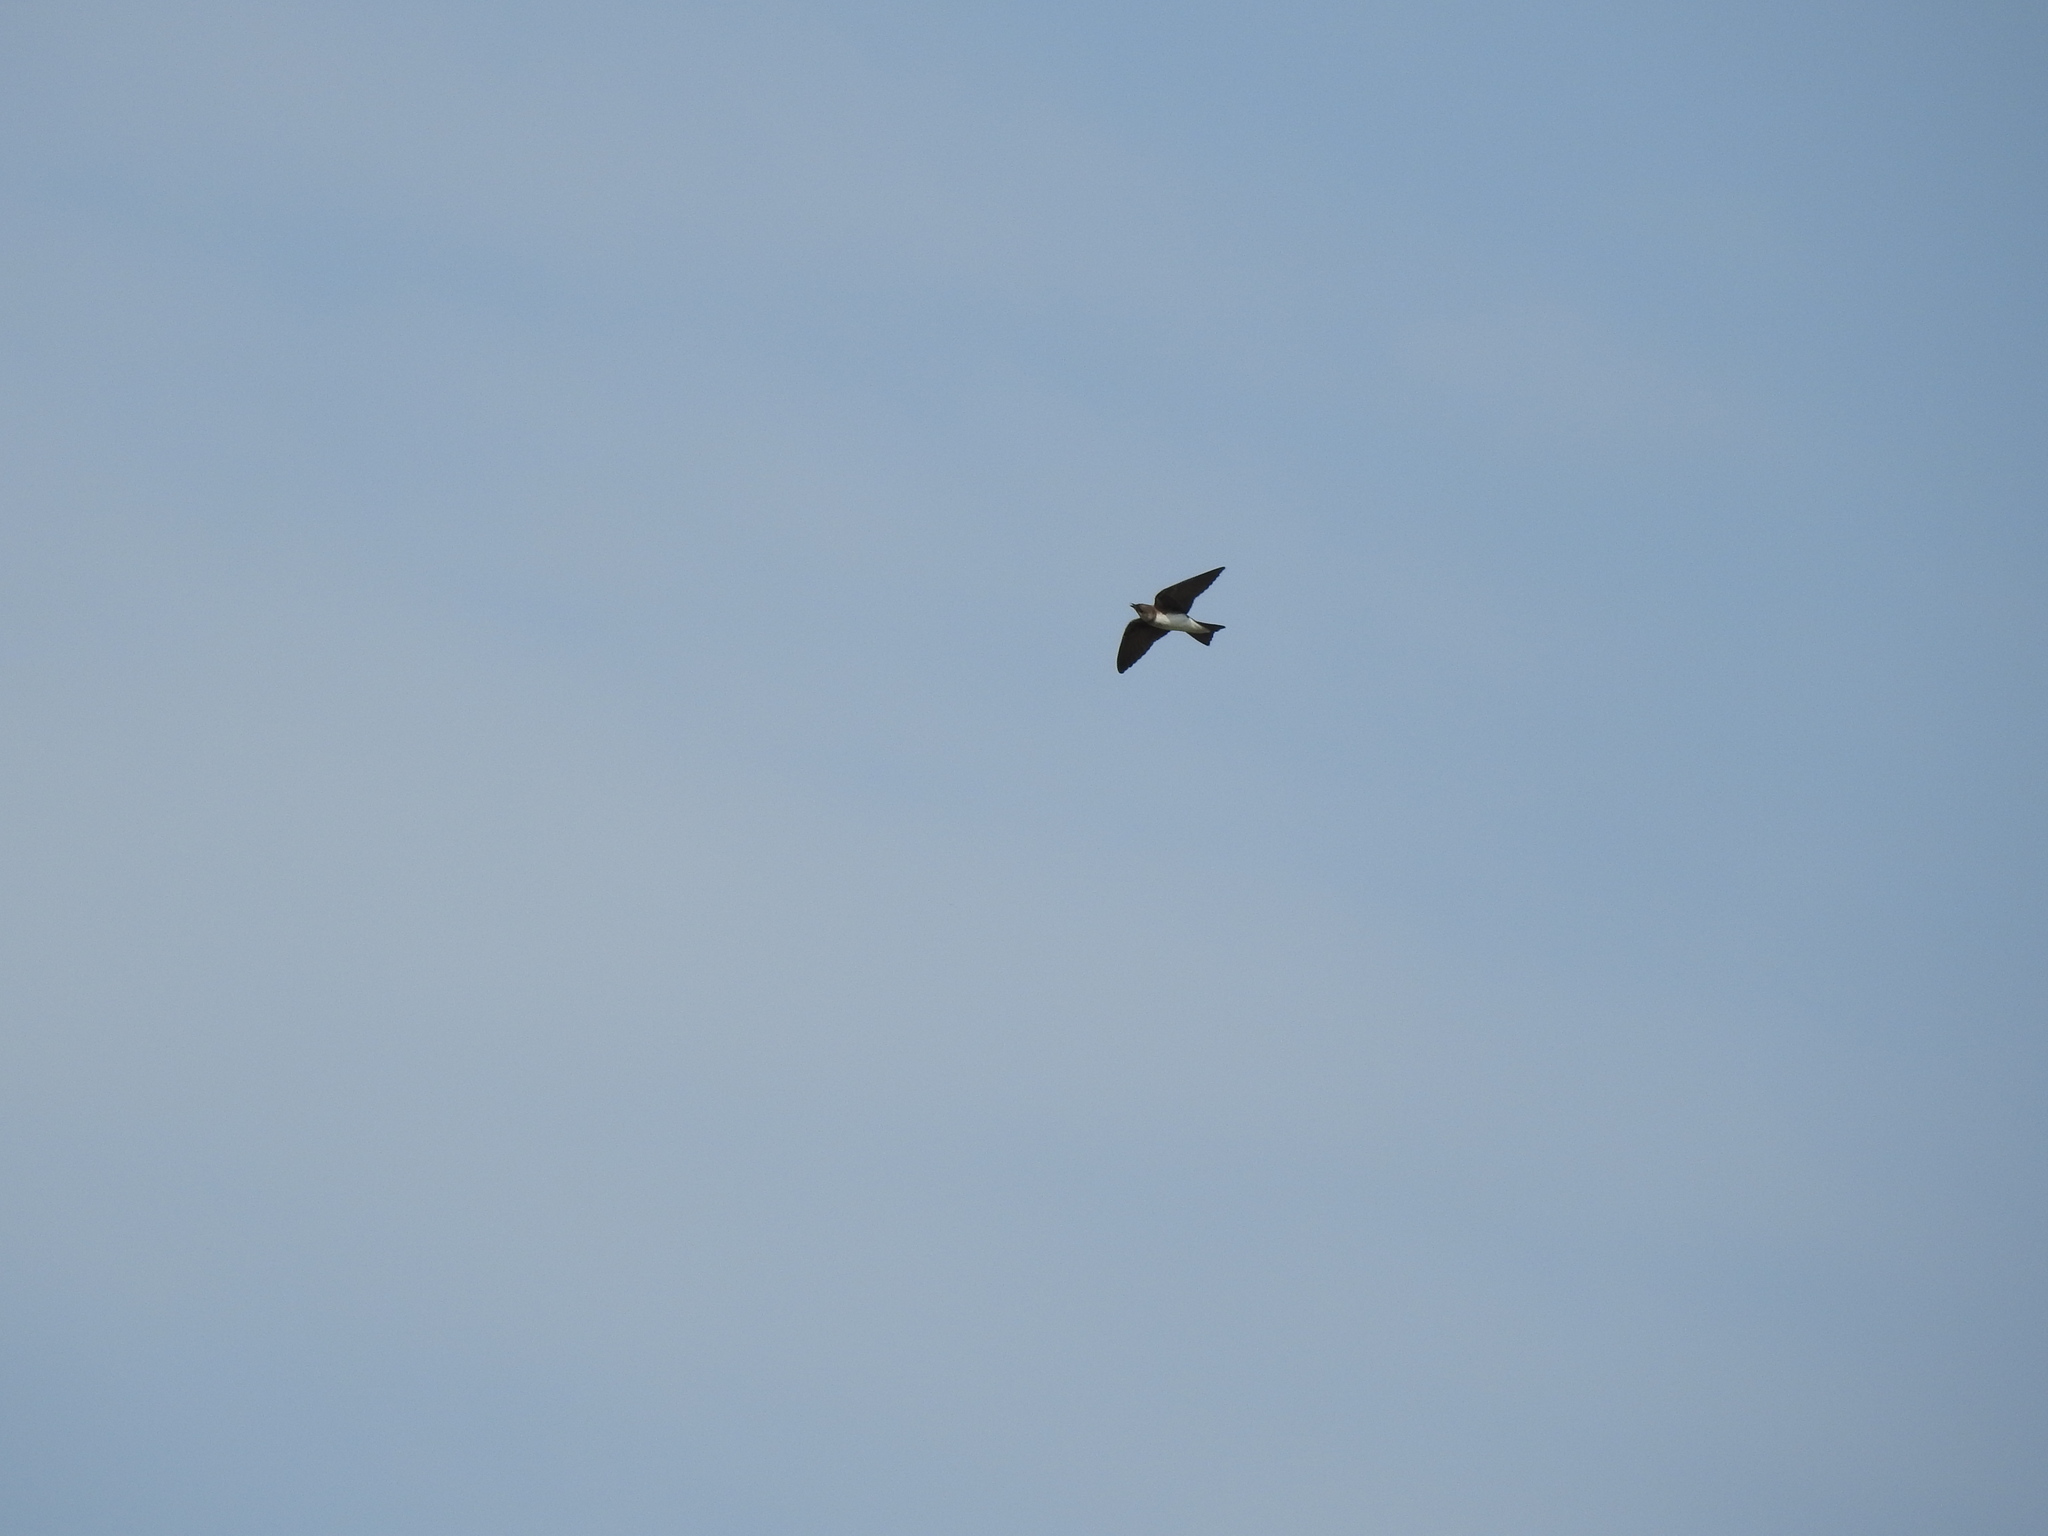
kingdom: Animalia
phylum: Chordata
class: Aves
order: Passeriformes
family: Hirundinidae
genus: Progne
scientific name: Progne chalybea
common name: Grey-breasted martin
